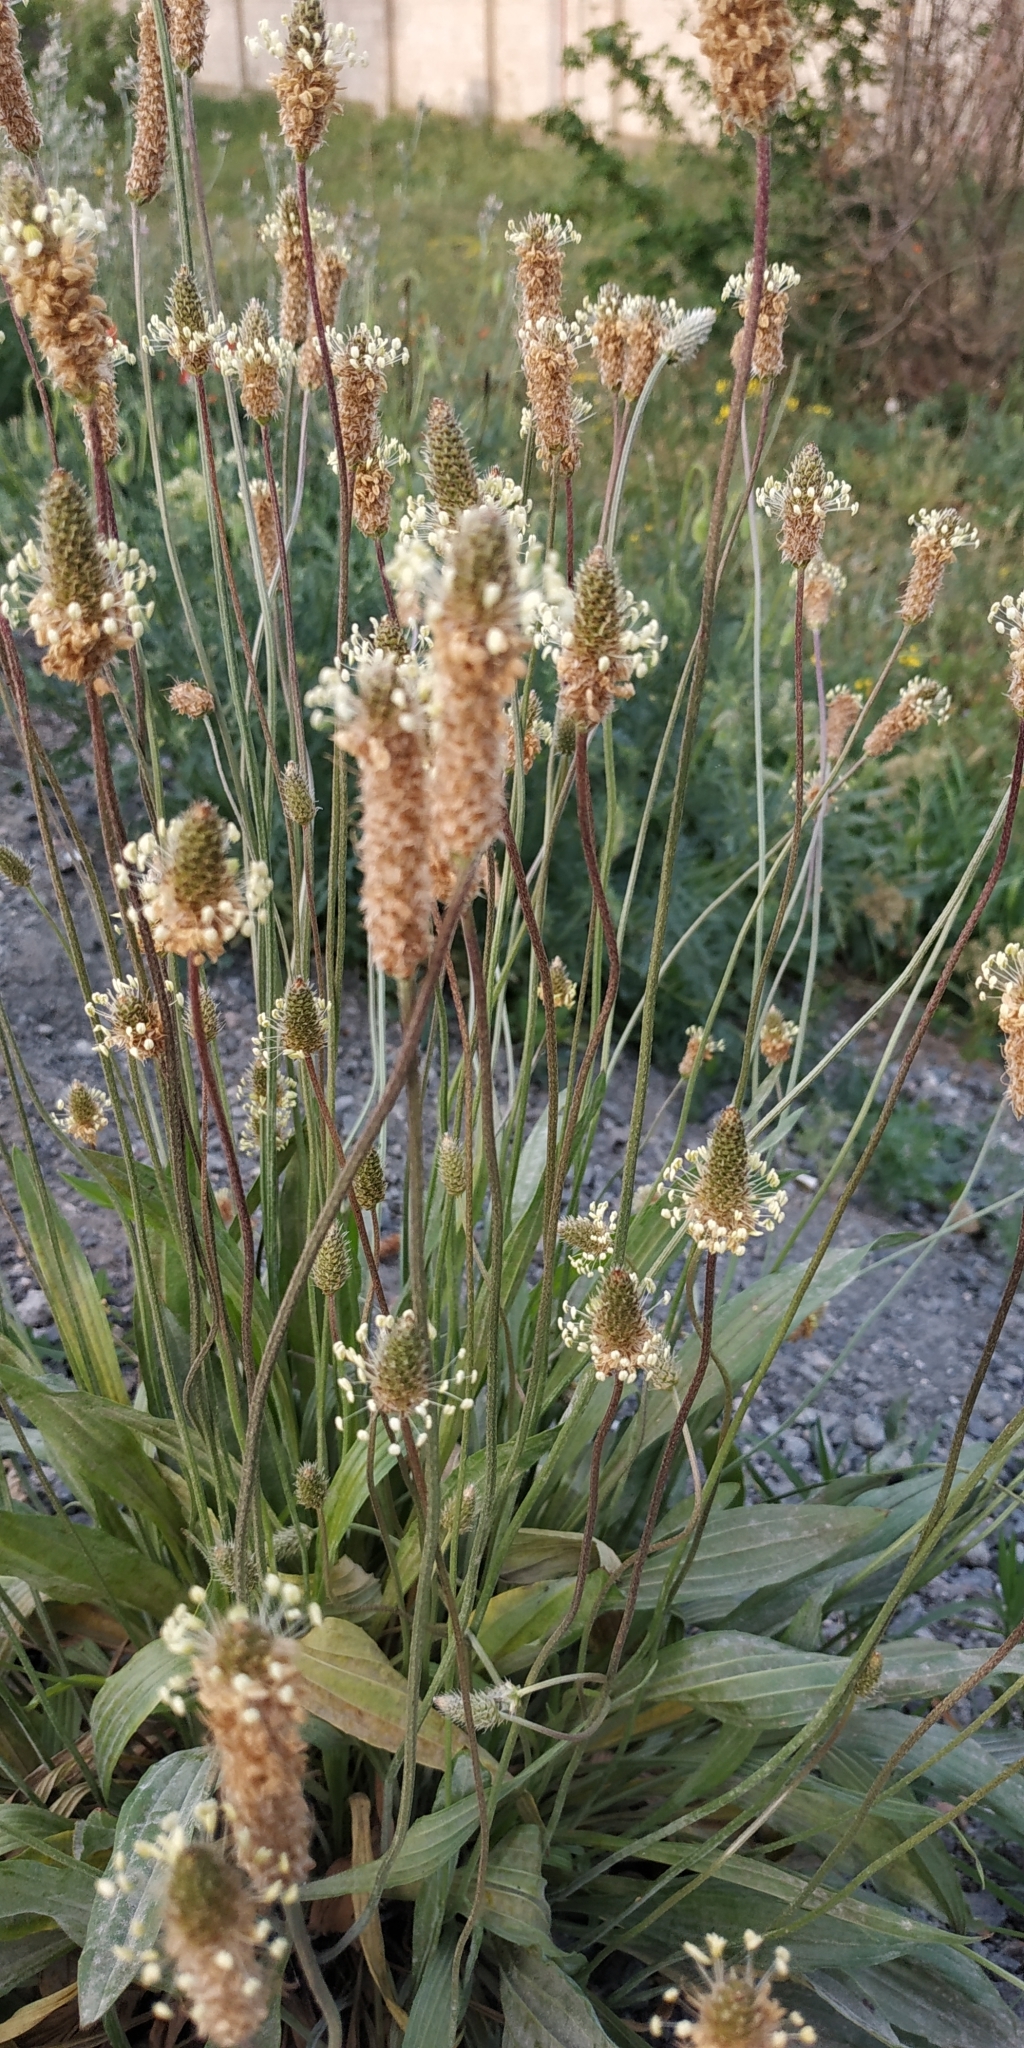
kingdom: Plantae
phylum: Tracheophyta
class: Magnoliopsida
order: Lamiales
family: Plantaginaceae
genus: Plantago
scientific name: Plantago lanceolata
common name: Ribwort plantain
